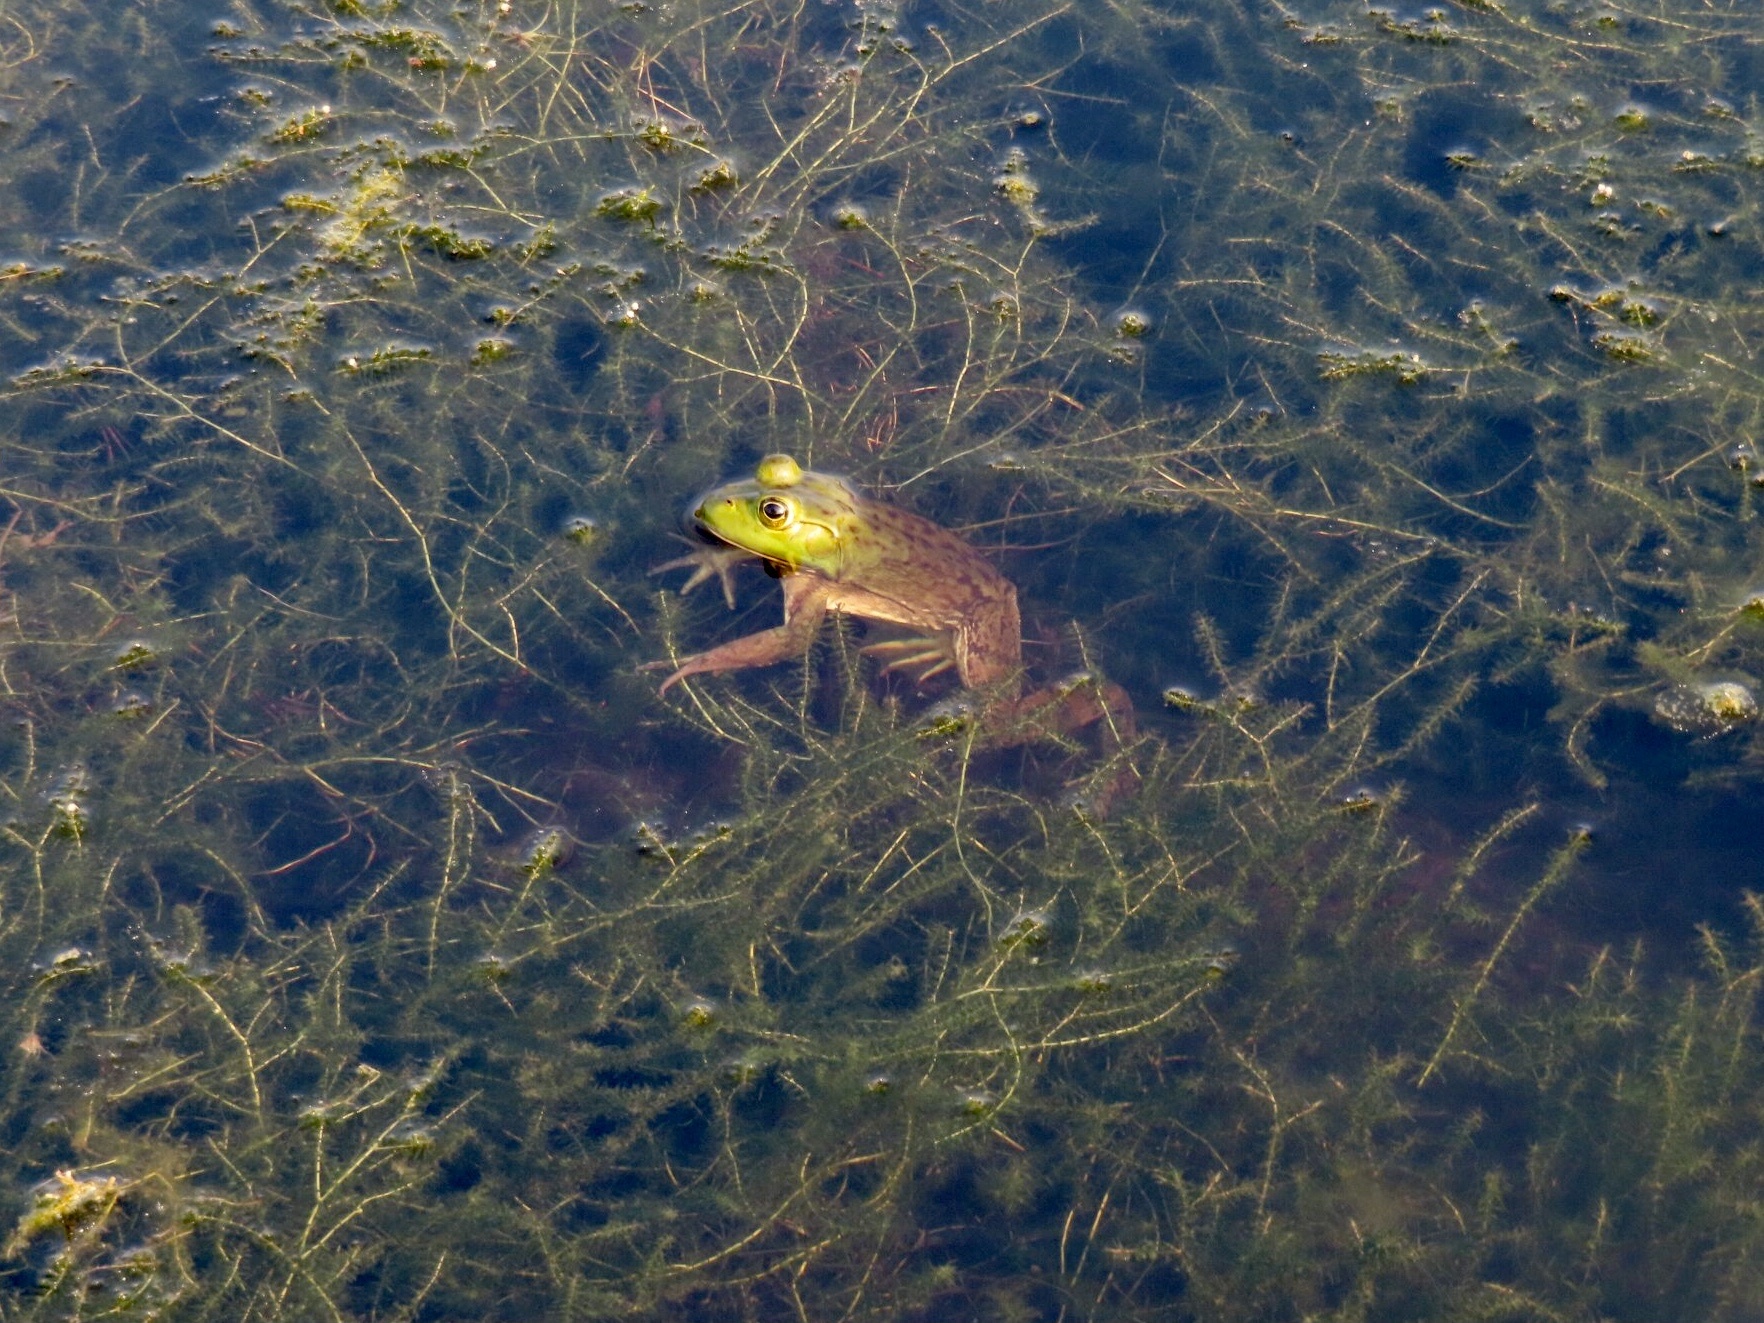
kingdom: Animalia
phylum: Chordata
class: Amphibia
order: Anura
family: Ranidae
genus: Lithobates
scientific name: Lithobates catesbeianus
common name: American bullfrog
